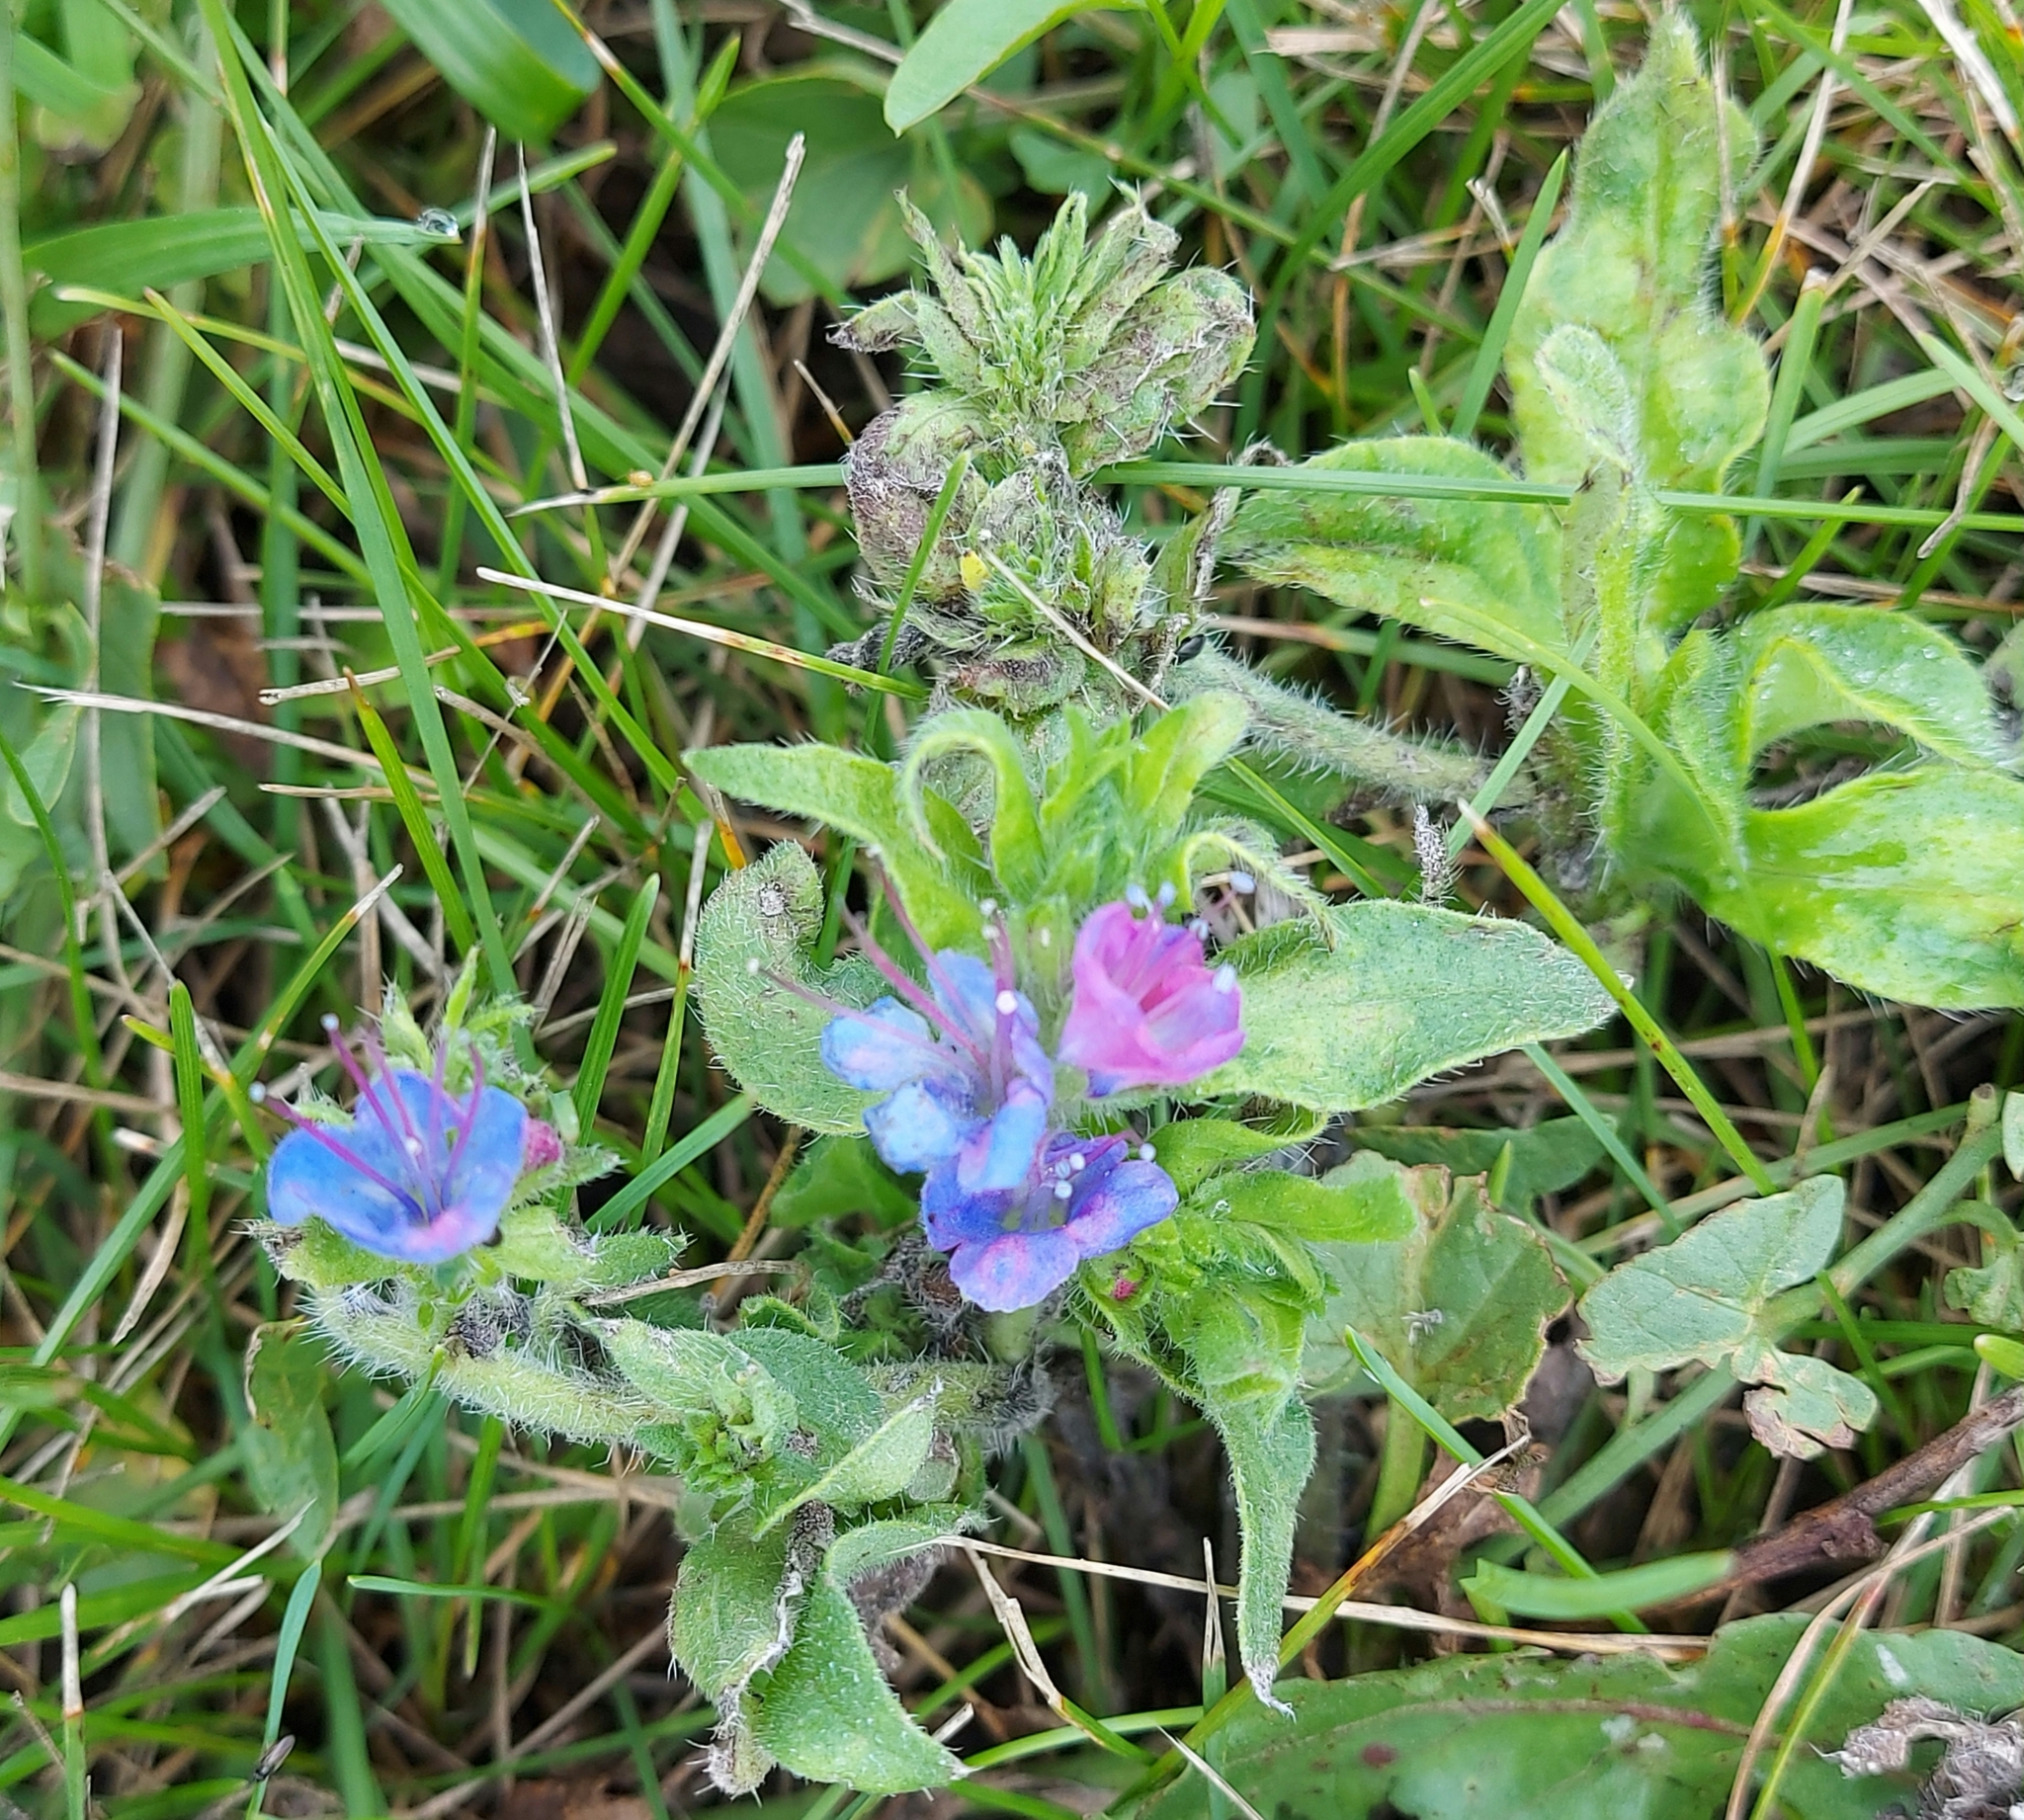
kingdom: Plantae
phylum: Tracheophyta
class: Magnoliopsida
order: Boraginales
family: Boraginaceae
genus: Echium
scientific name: Echium vulgare
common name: Common viper's bugloss
